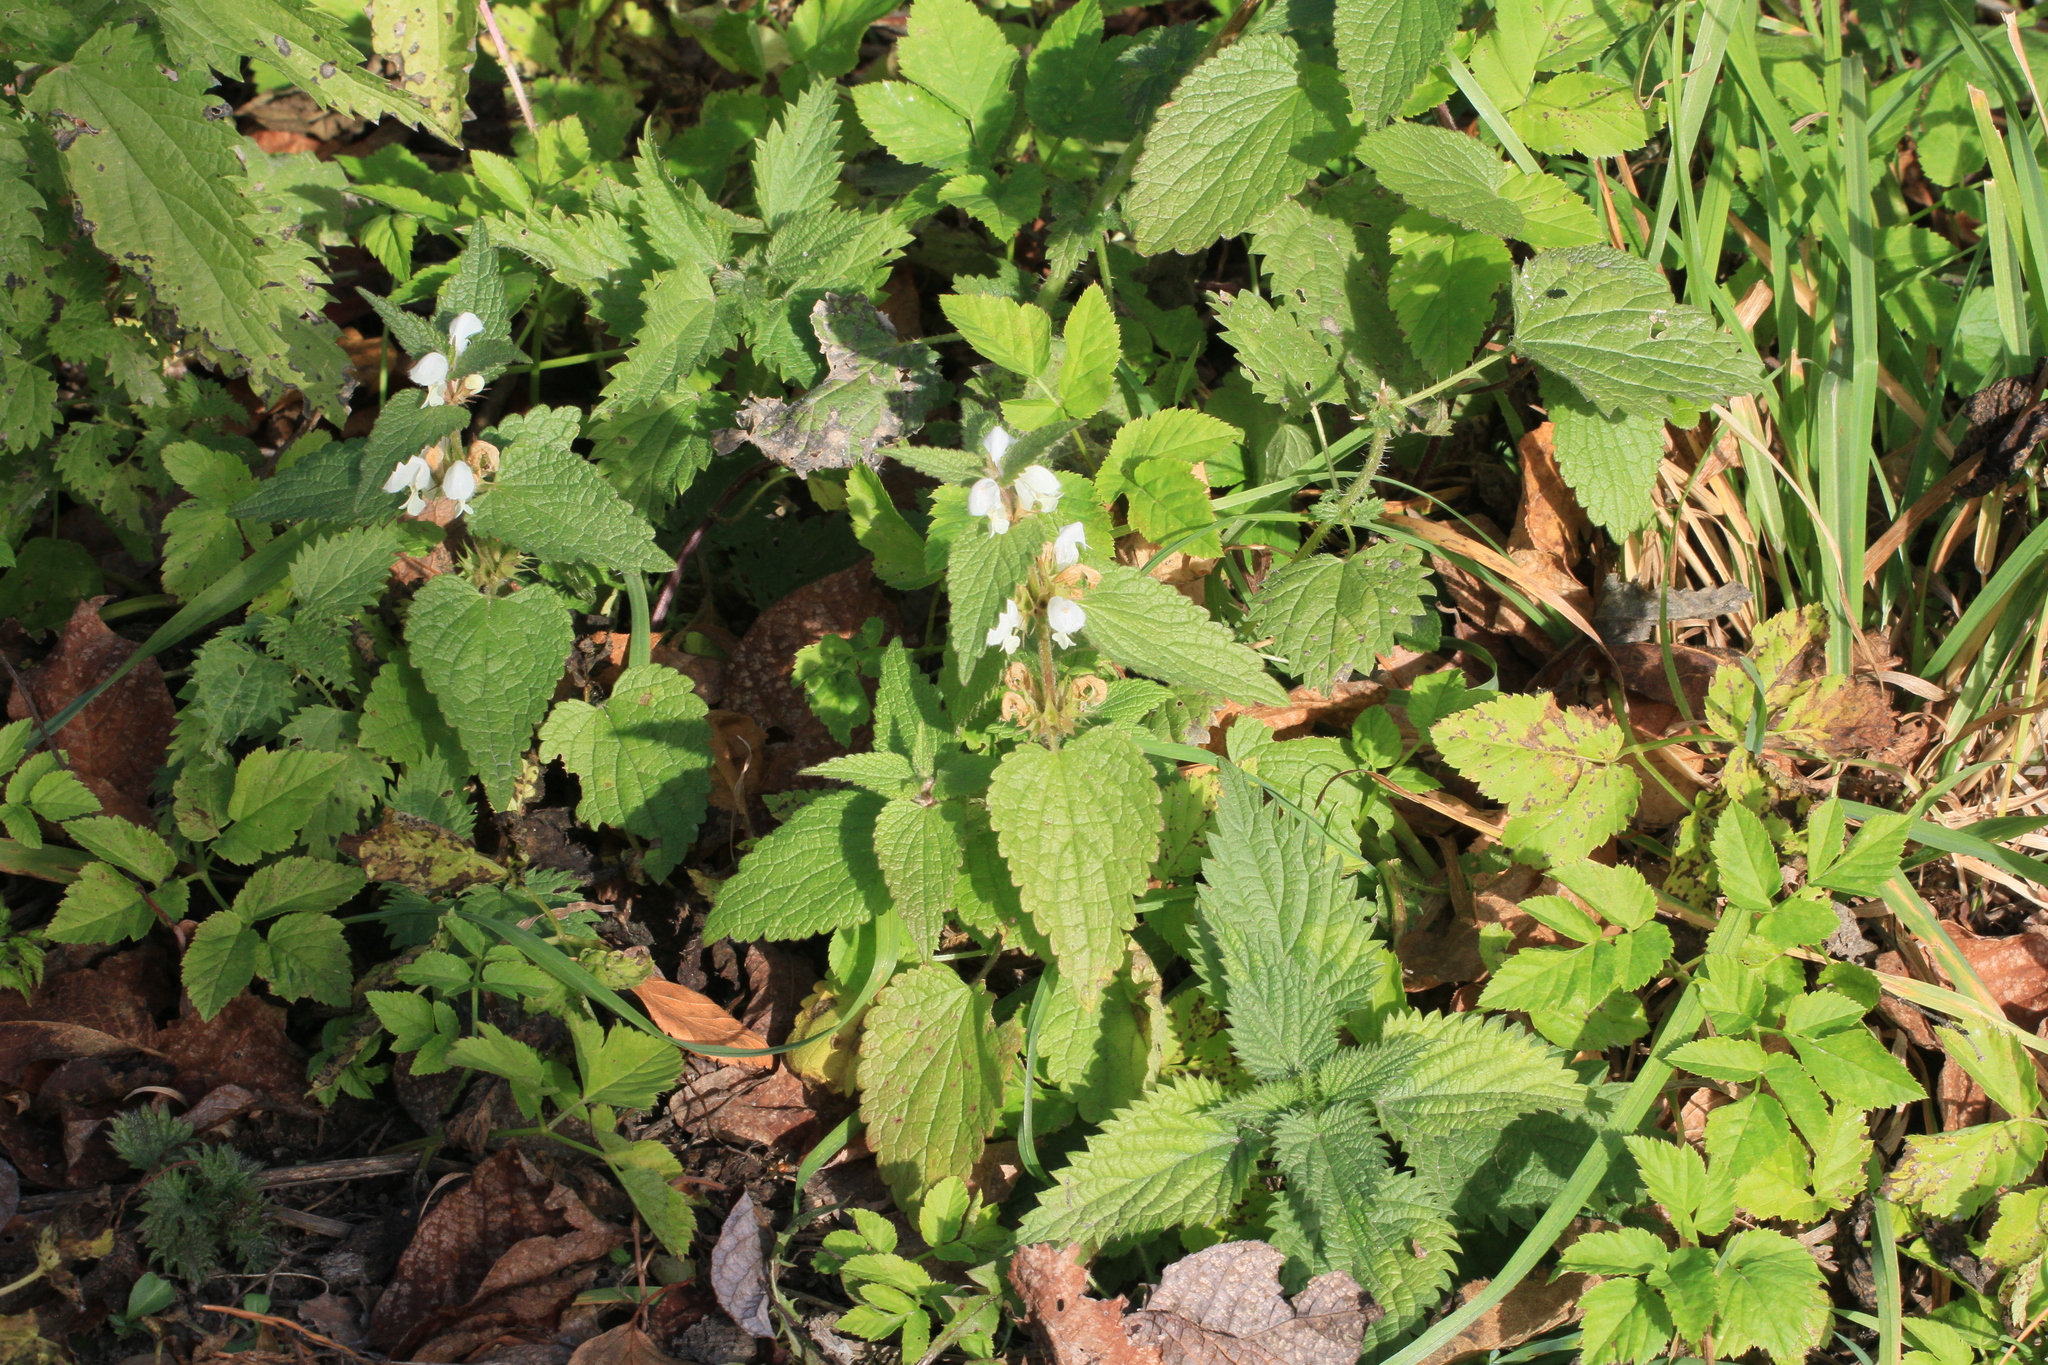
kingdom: Plantae
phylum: Tracheophyta
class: Magnoliopsida
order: Lamiales
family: Lamiaceae
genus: Lamium
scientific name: Lamium album
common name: White dead-nettle
